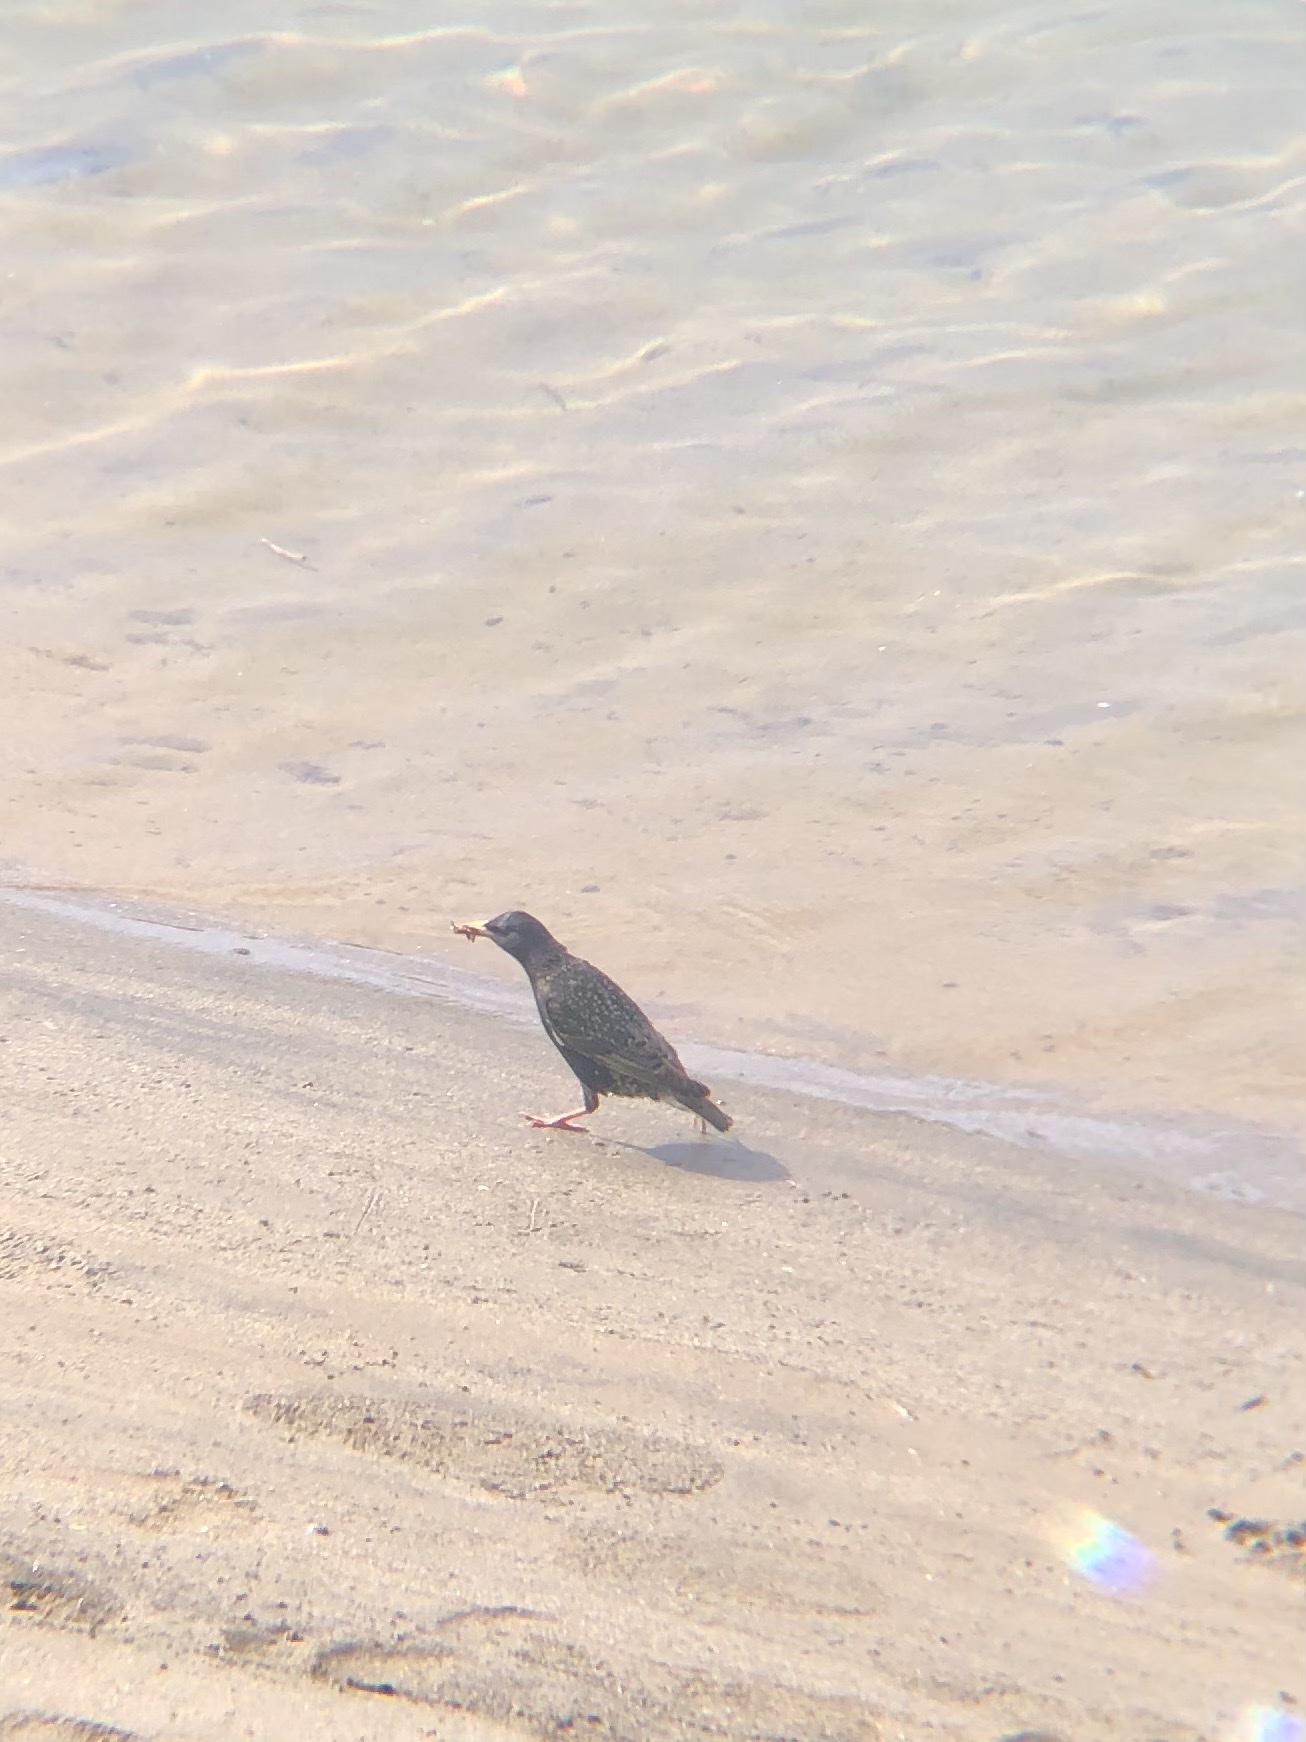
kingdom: Animalia
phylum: Chordata
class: Aves
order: Passeriformes
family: Sturnidae
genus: Sturnus
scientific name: Sturnus vulgaris
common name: Common starling
